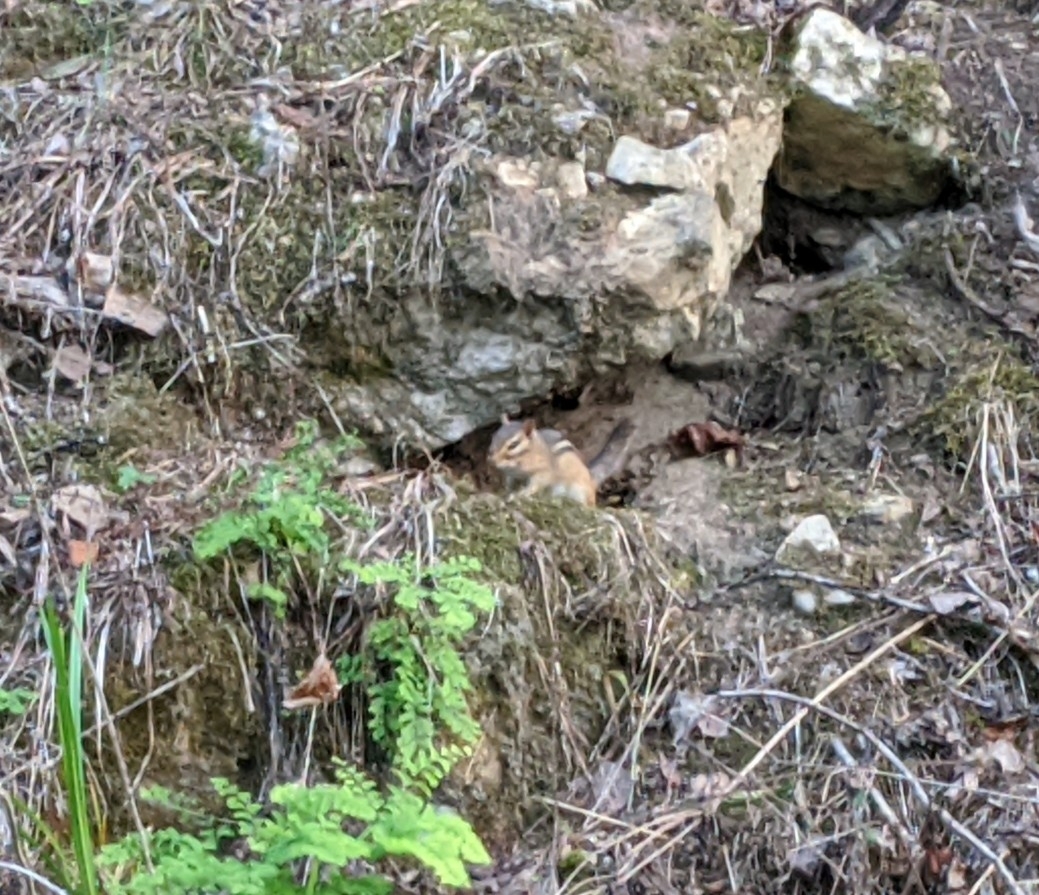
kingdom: Animalia
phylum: Chordata
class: Mammalia
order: Rodentia
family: Sciuridae
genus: Tamias
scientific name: Tamias striatus
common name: Eastern chipmunk
